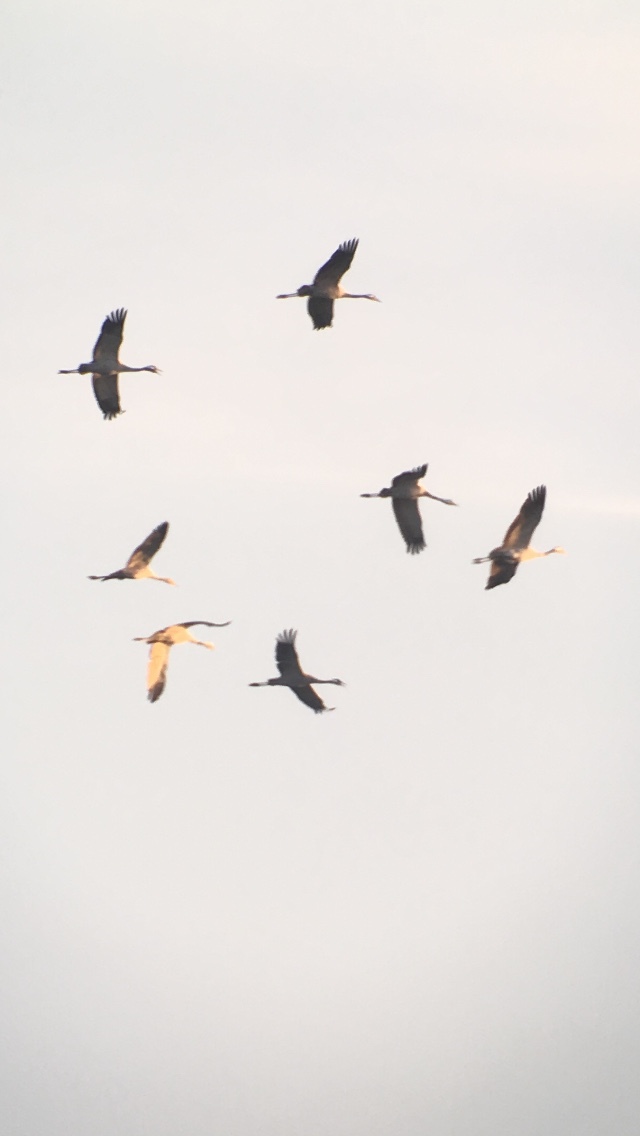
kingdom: Animalia
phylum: Chordata
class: Aves
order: Gruiformes
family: Gruidae
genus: Grus
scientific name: Grus grus
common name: Common crane
